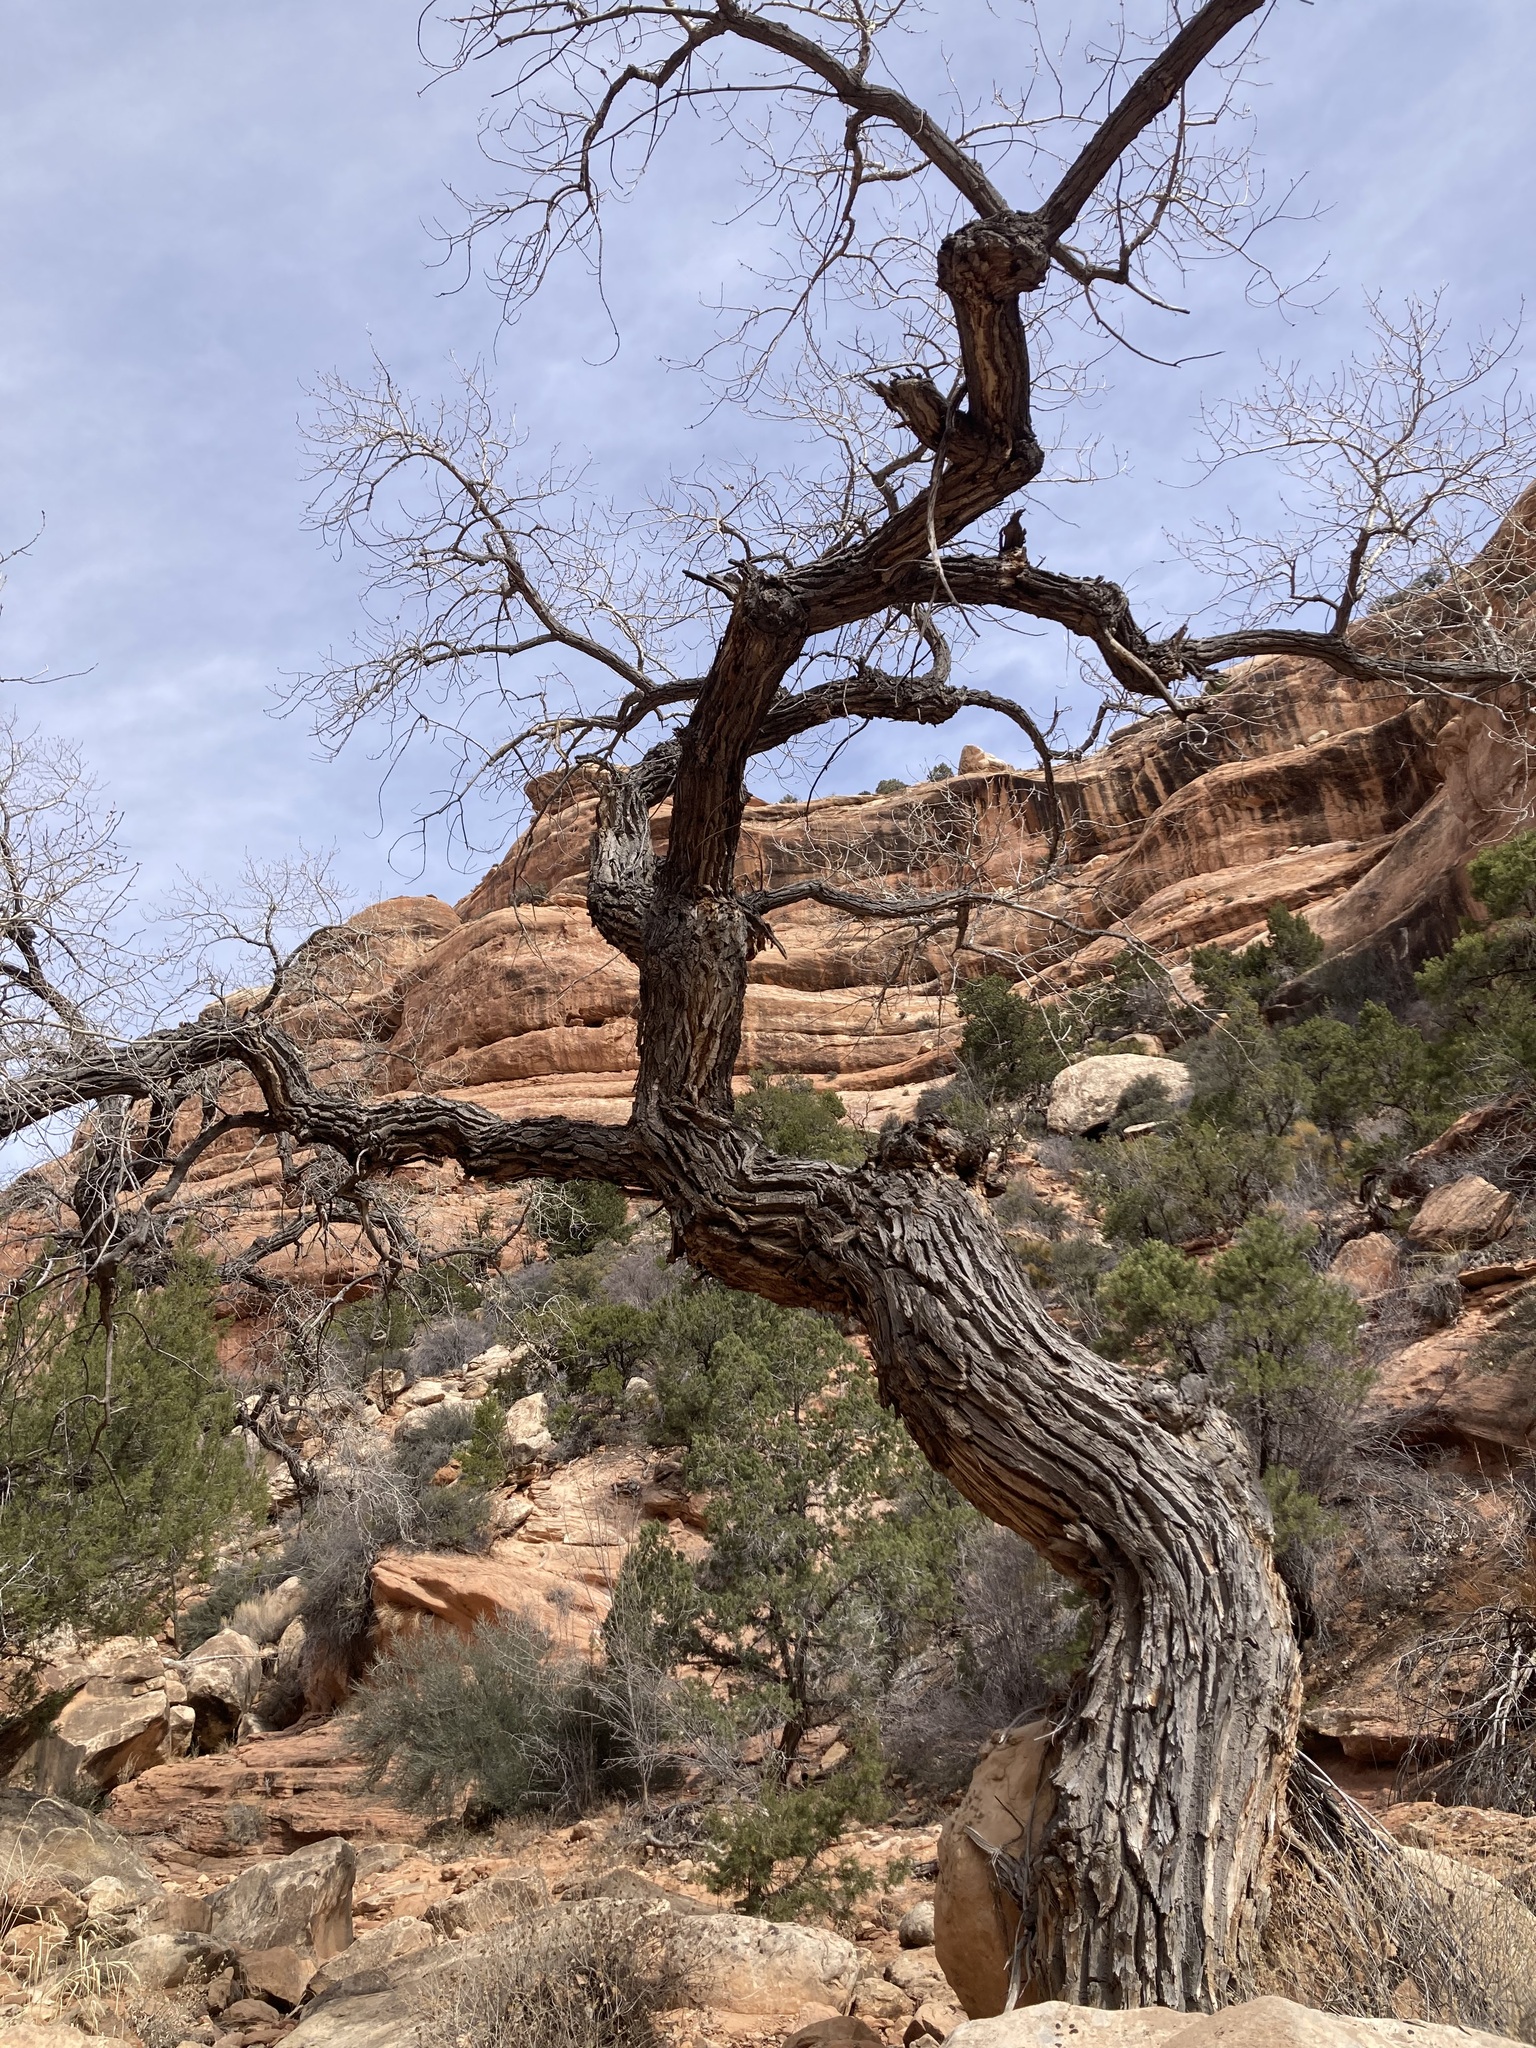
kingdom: Plantae
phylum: Tracheophyta
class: Magnoliopsida
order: Malpighiales
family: Salicaceae
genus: Populus
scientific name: Populus fremontii
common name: Fremont's cottonwood
